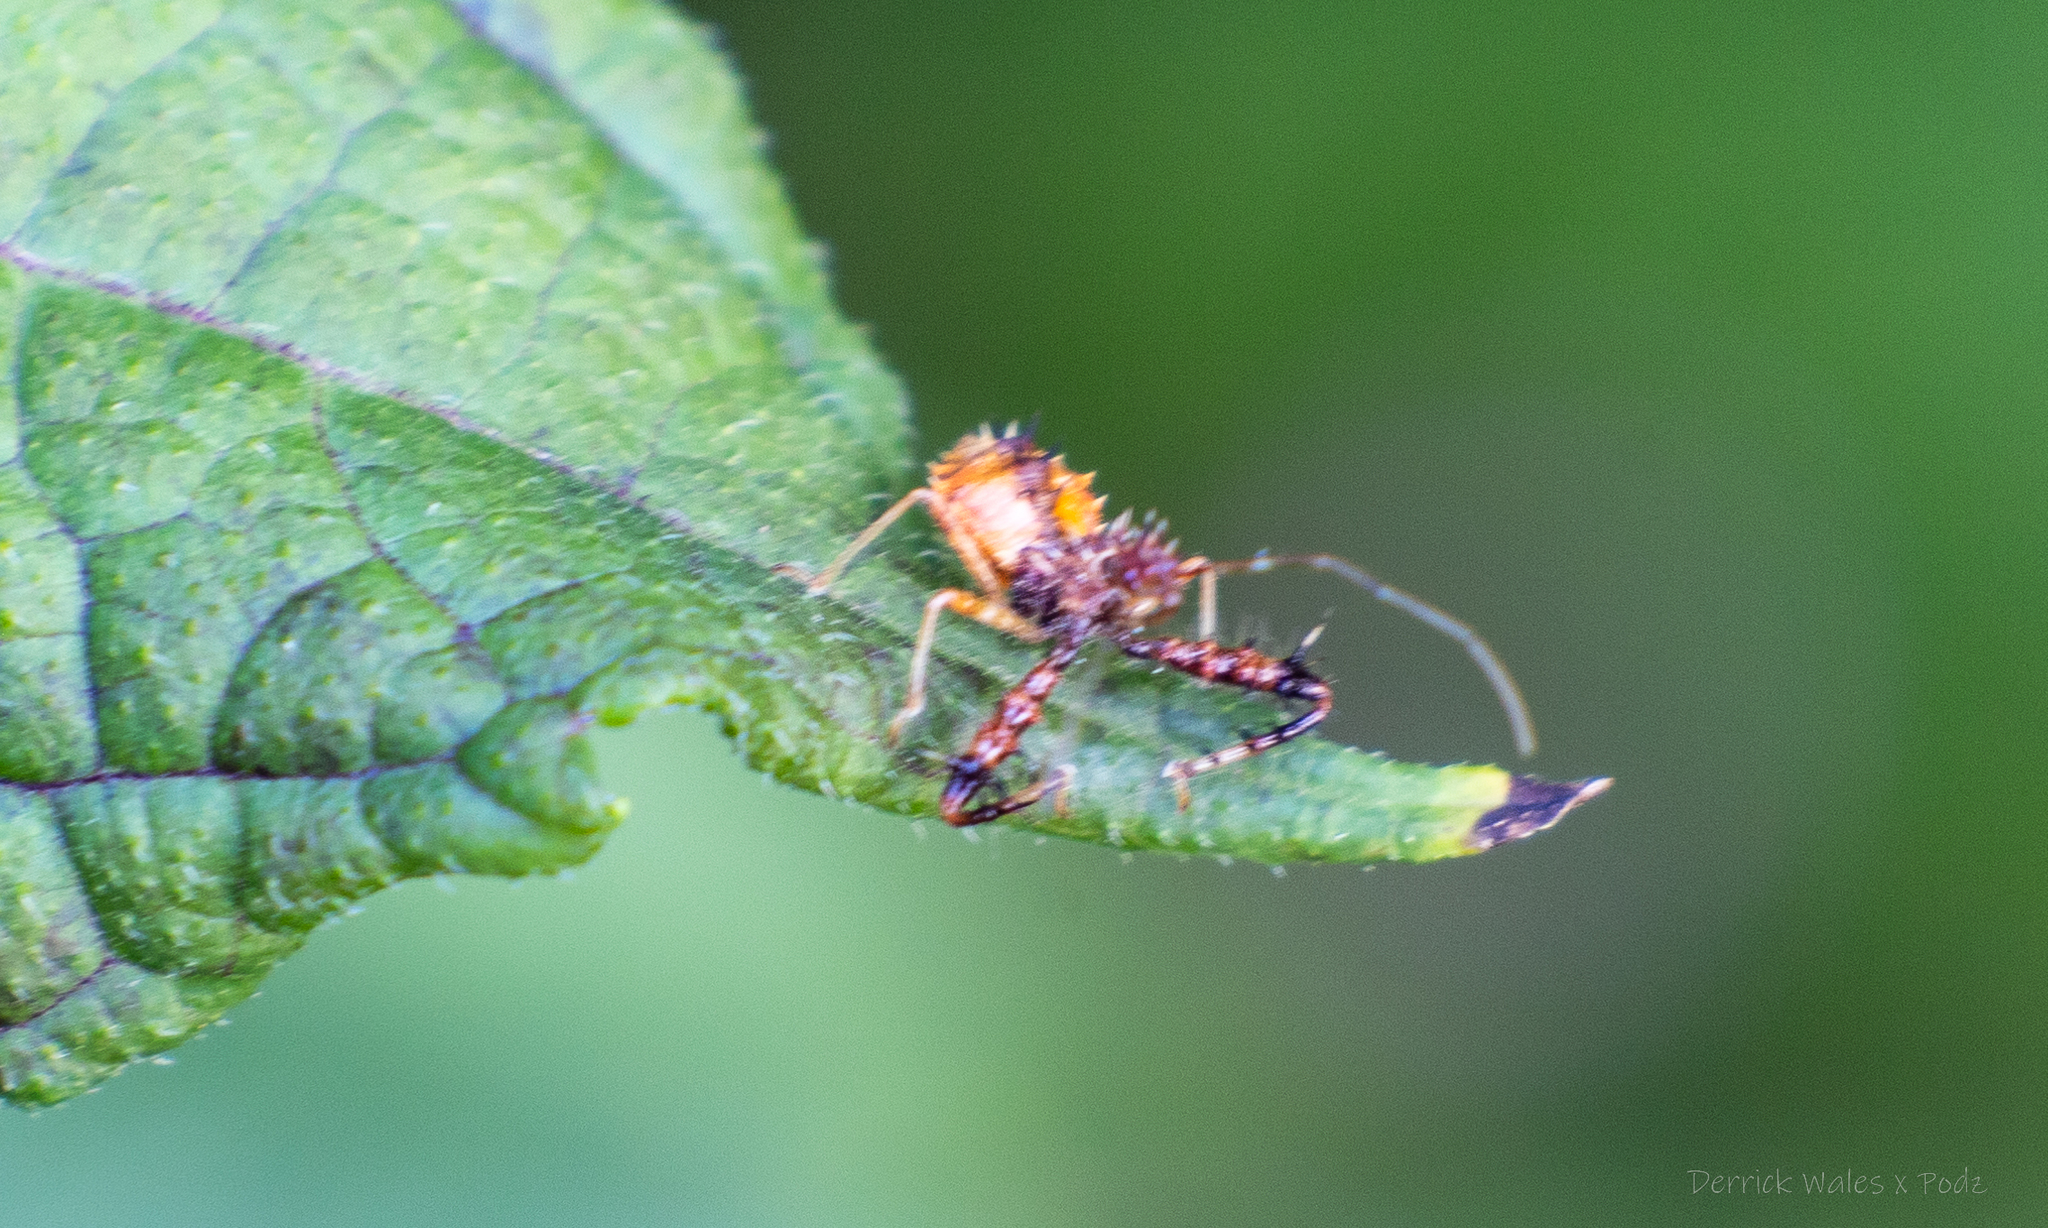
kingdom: Animalia
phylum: Arthropoda
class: Insecta
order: Hemiptera
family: Reduviidae
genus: Sinea
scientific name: Sinea spinipes
